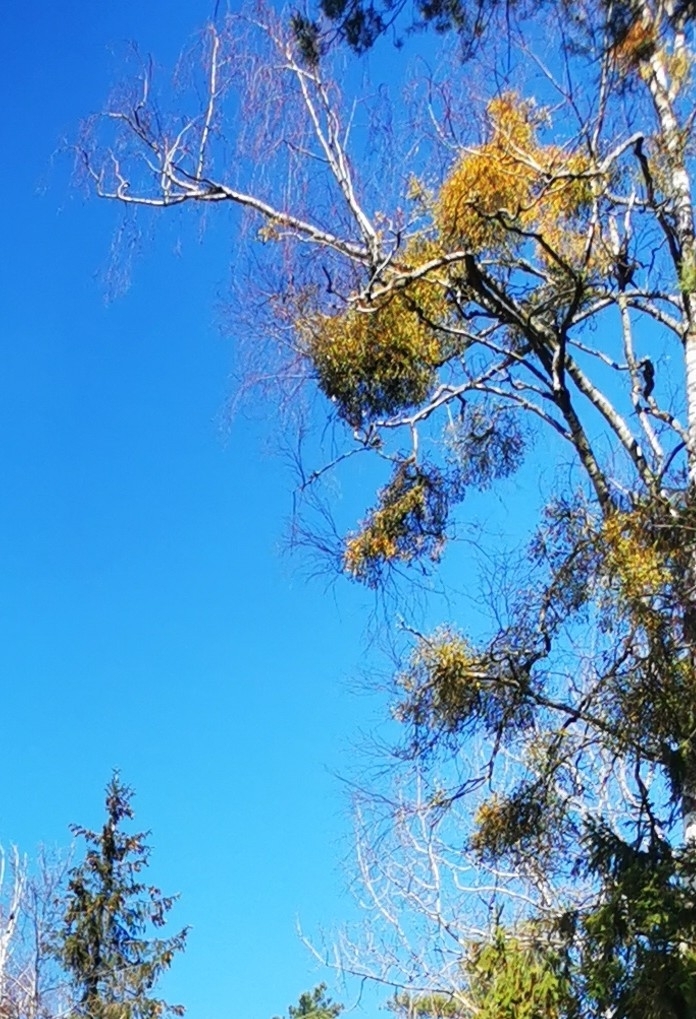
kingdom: Plantae
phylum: Tracheophyta
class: Magnoliopsida
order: Santalales
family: Viscaceae
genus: Viscum
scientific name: Viscum album
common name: Mistletoe
